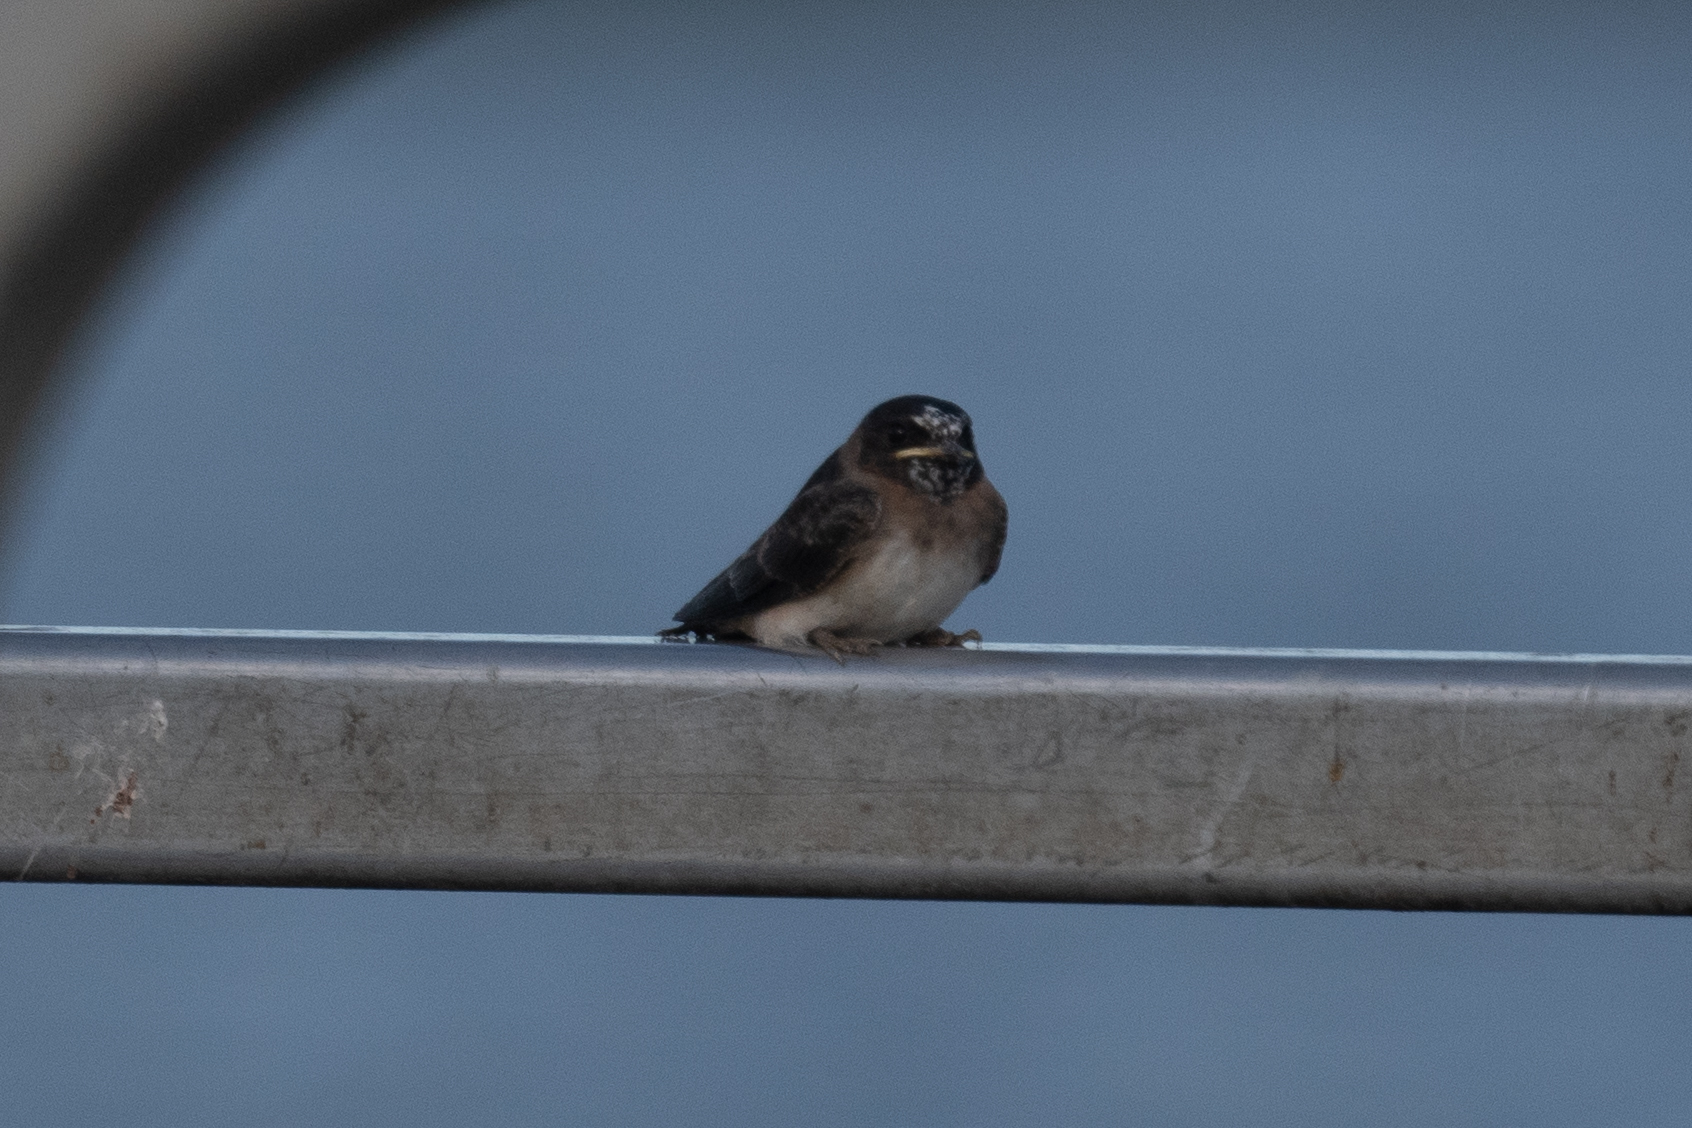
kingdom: Animalia
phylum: Chordata
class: Aves
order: Passeriformes
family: Hirundinidae
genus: Petrochelidon
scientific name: Petrochelidon pyrrhonota
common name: American cliff swallow
